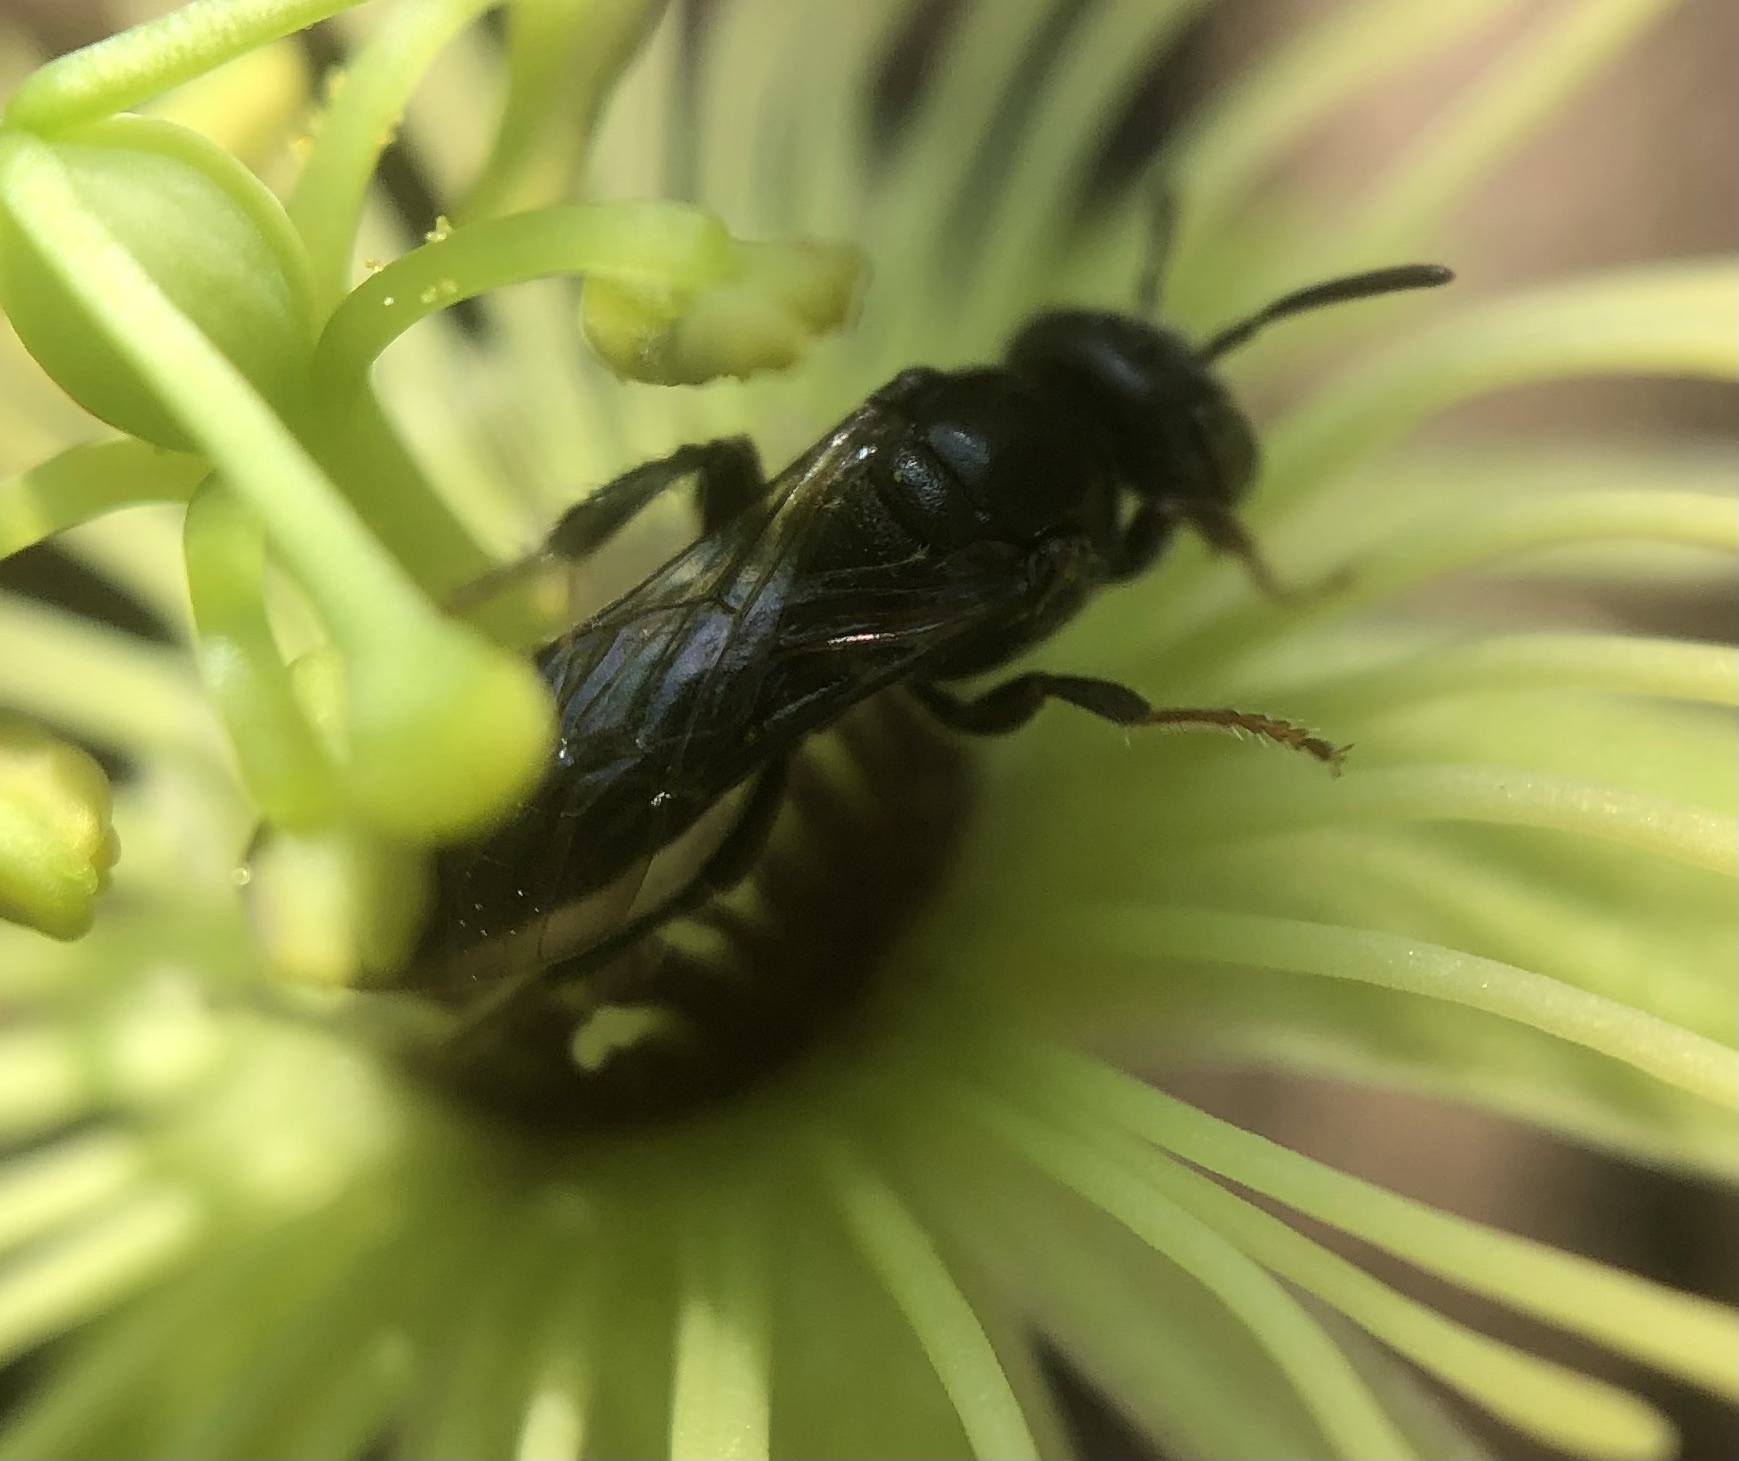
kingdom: Animalia
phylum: Arthropoda
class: Insecta
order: Hymenoptera
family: Andrenidae
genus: Protandrena
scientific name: Protandrena
